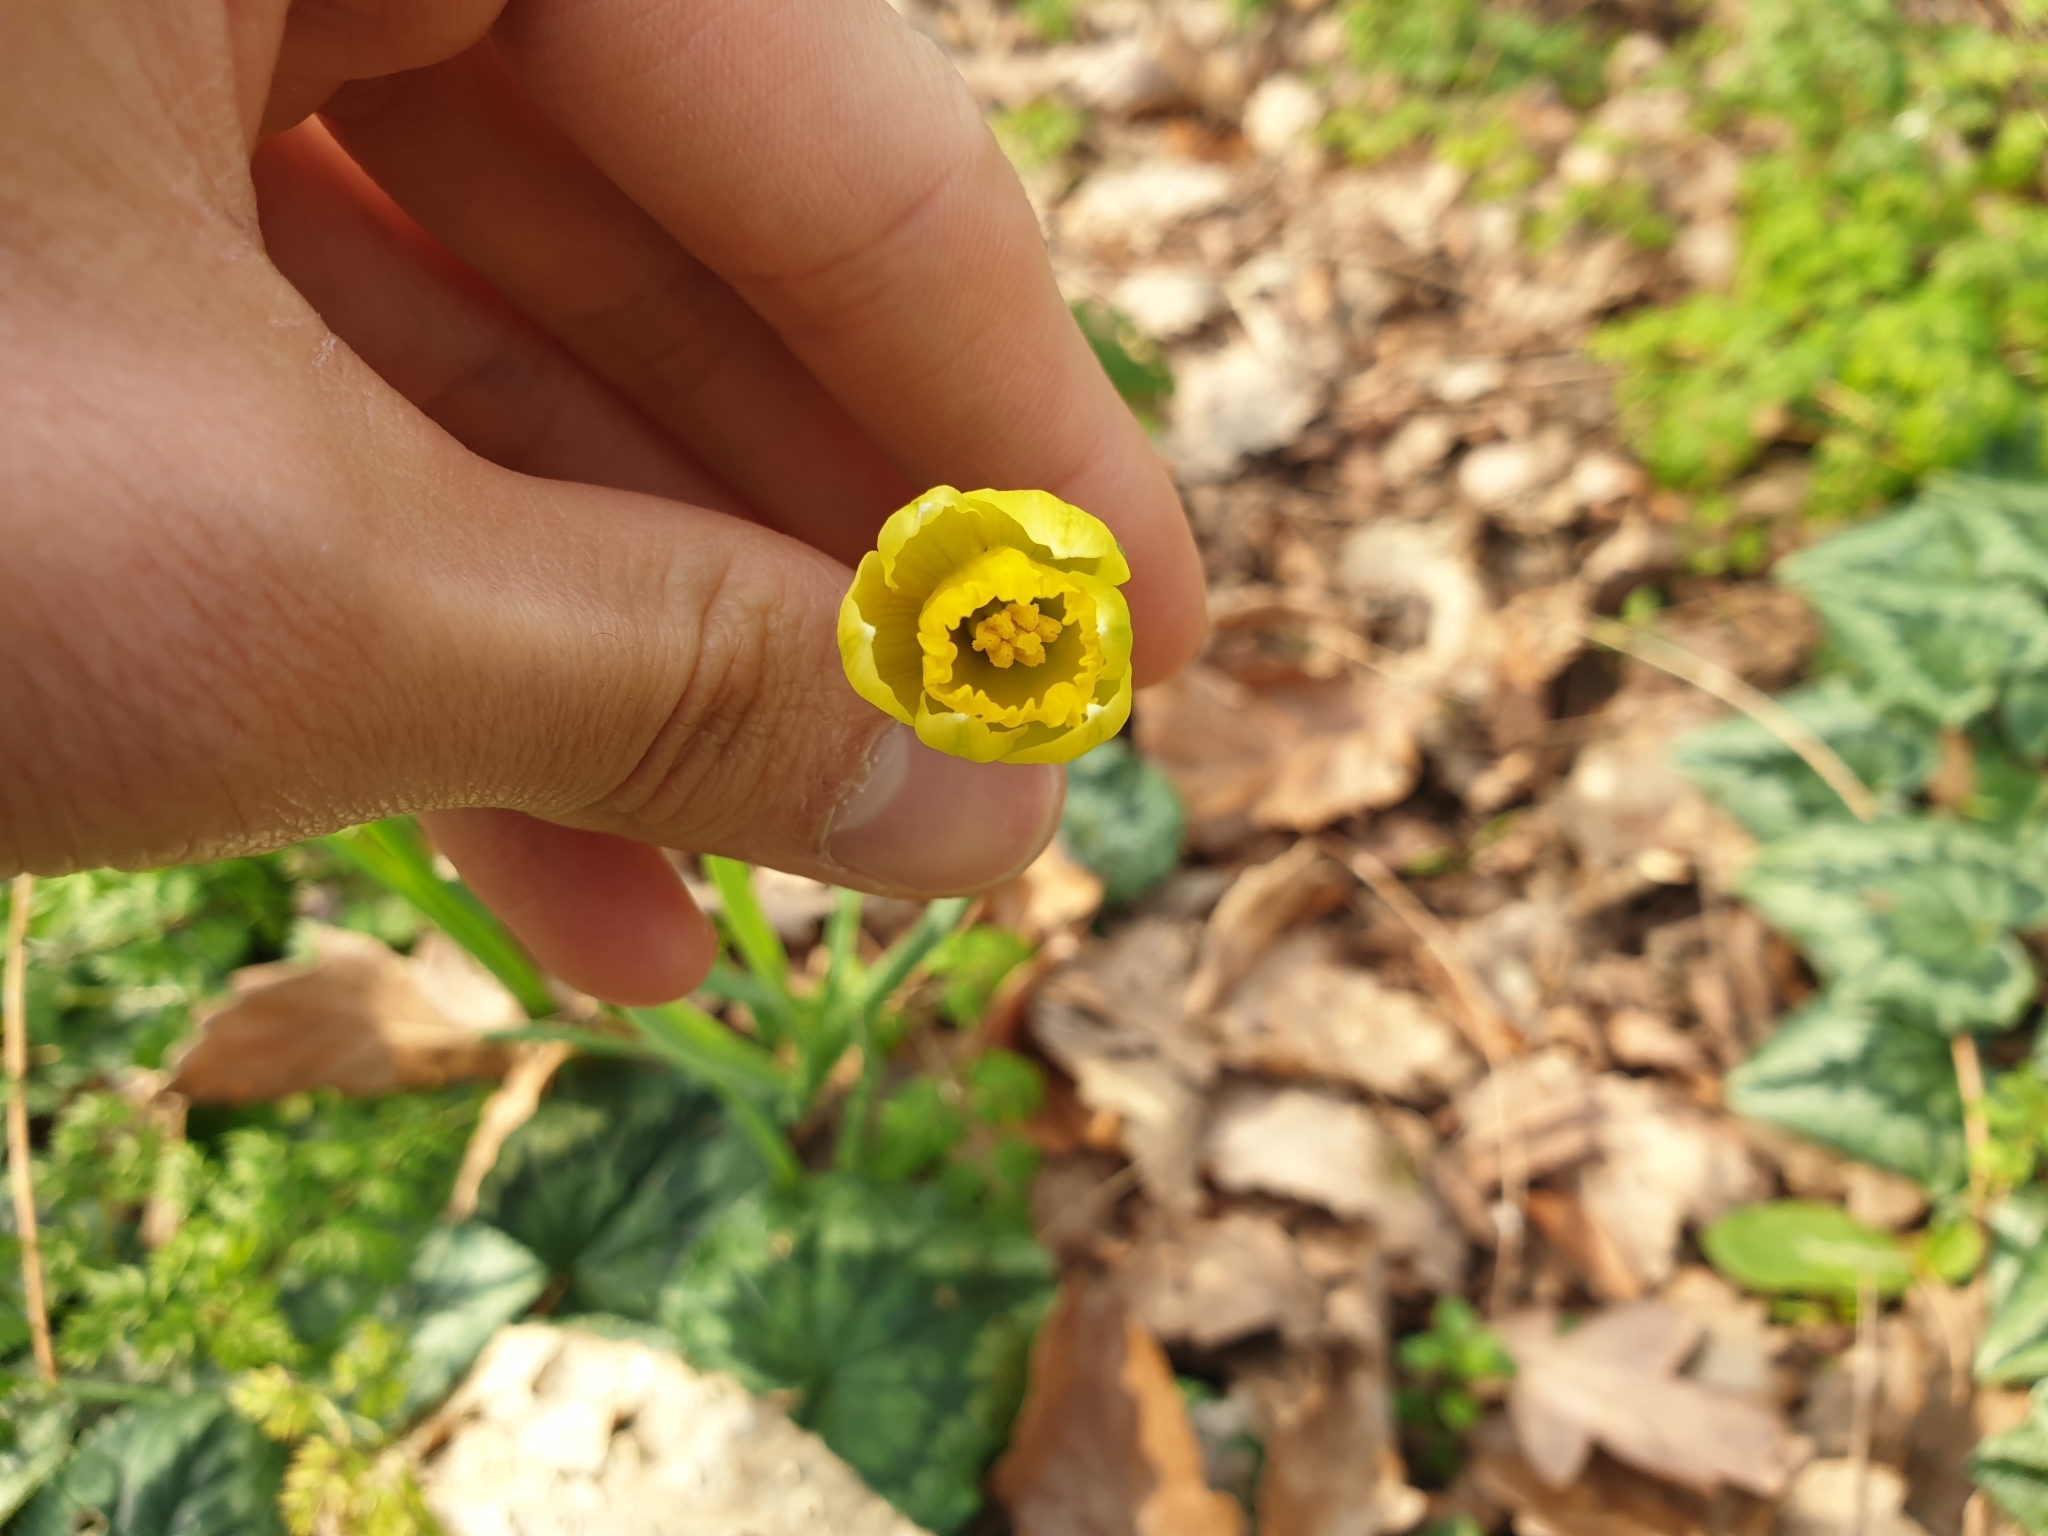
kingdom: Plantae
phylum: Tracheophyta
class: Liliopsida
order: Asparagales
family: Amaryllidaceae
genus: Narcissus
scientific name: Narcissus pseudonarcissus
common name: Daffodil
